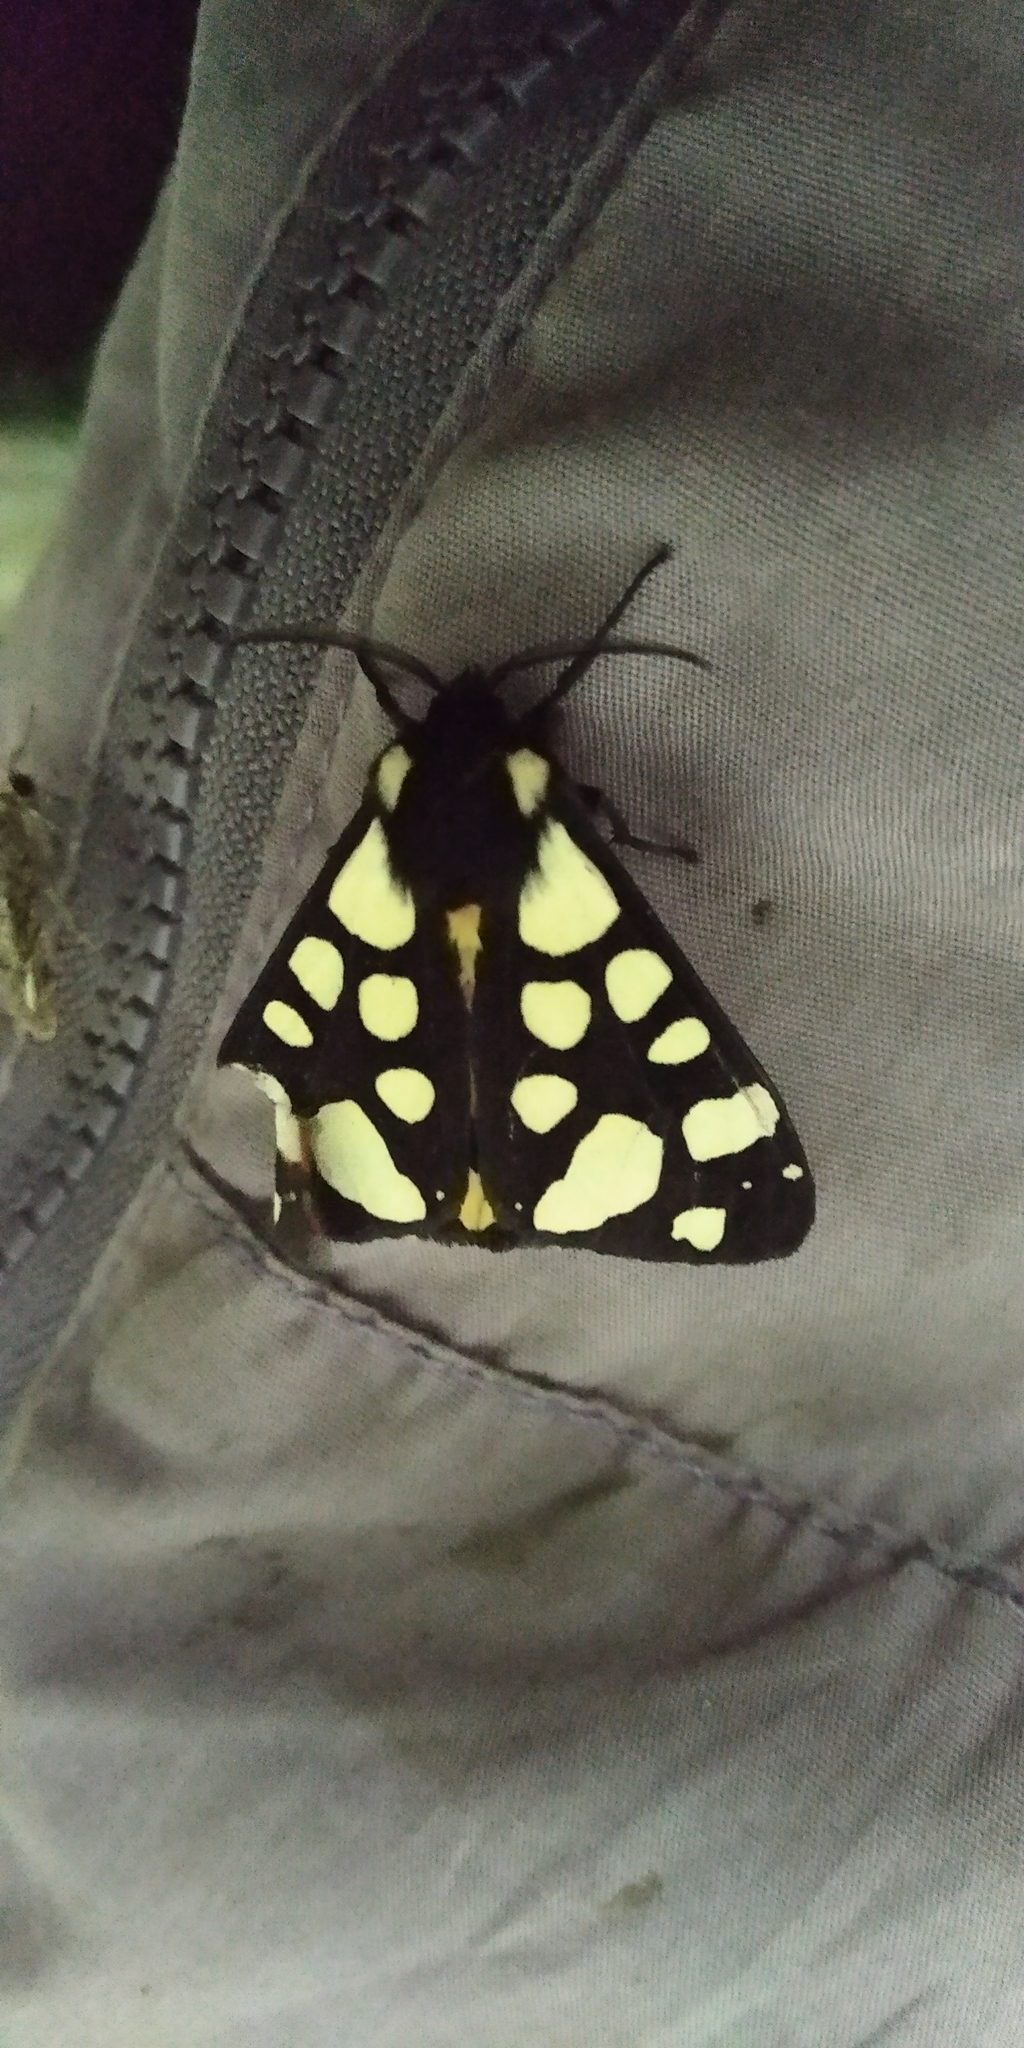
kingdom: Animalia
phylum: Arthropoda
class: Insecta
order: Lepidoptera
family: Erebidae
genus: Epicallia
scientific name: Epicallia villica
